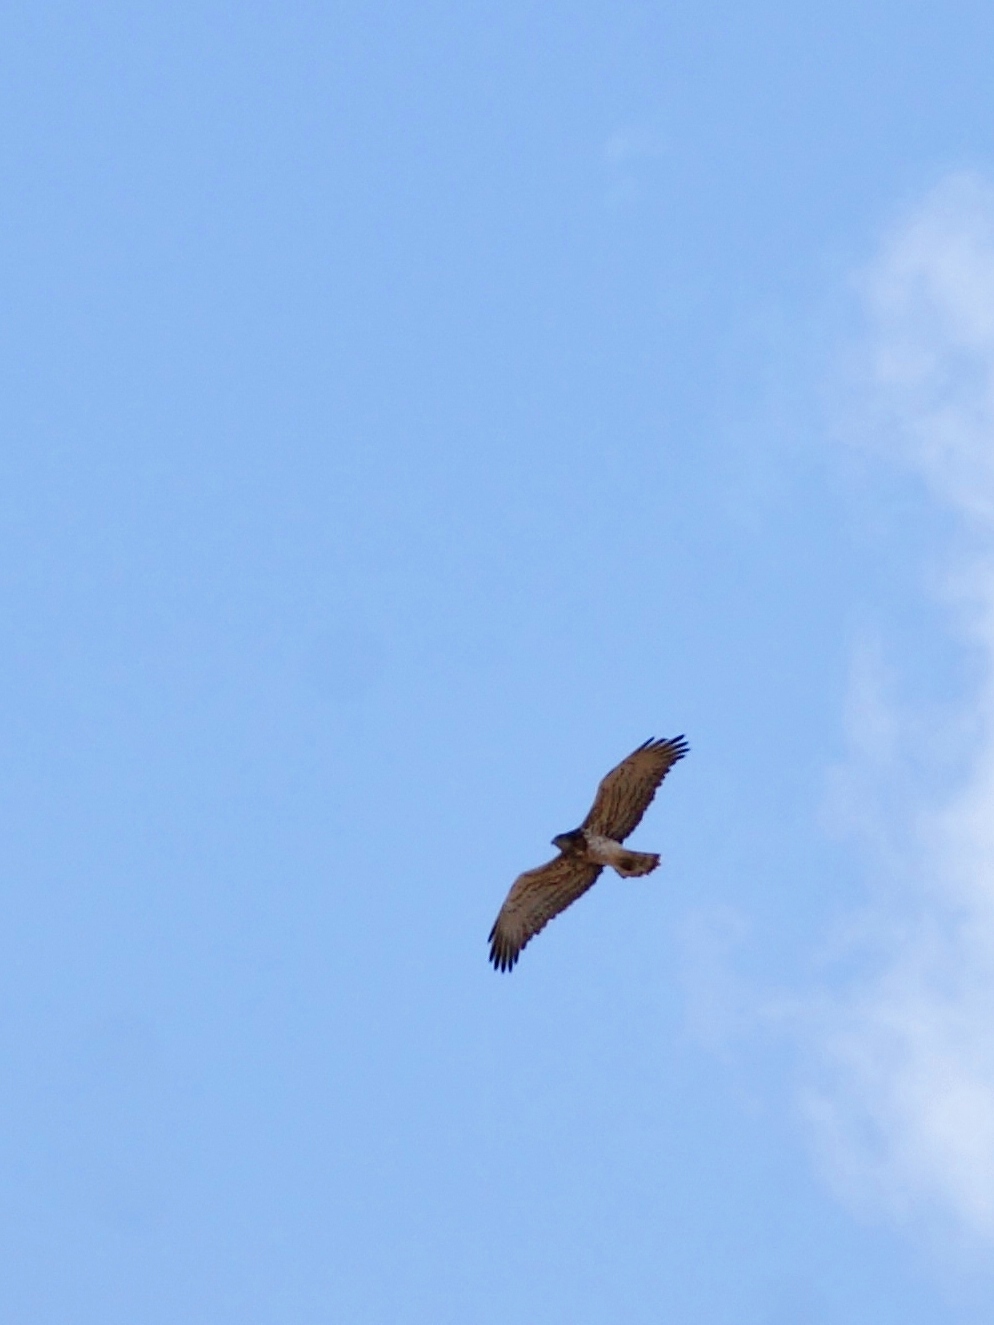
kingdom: Animalia
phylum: Chordata
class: Aves
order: Accipitriformes
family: Accipitridae
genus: Circaetus
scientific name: Circaetus gallicus
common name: Short-toed snake eagle
